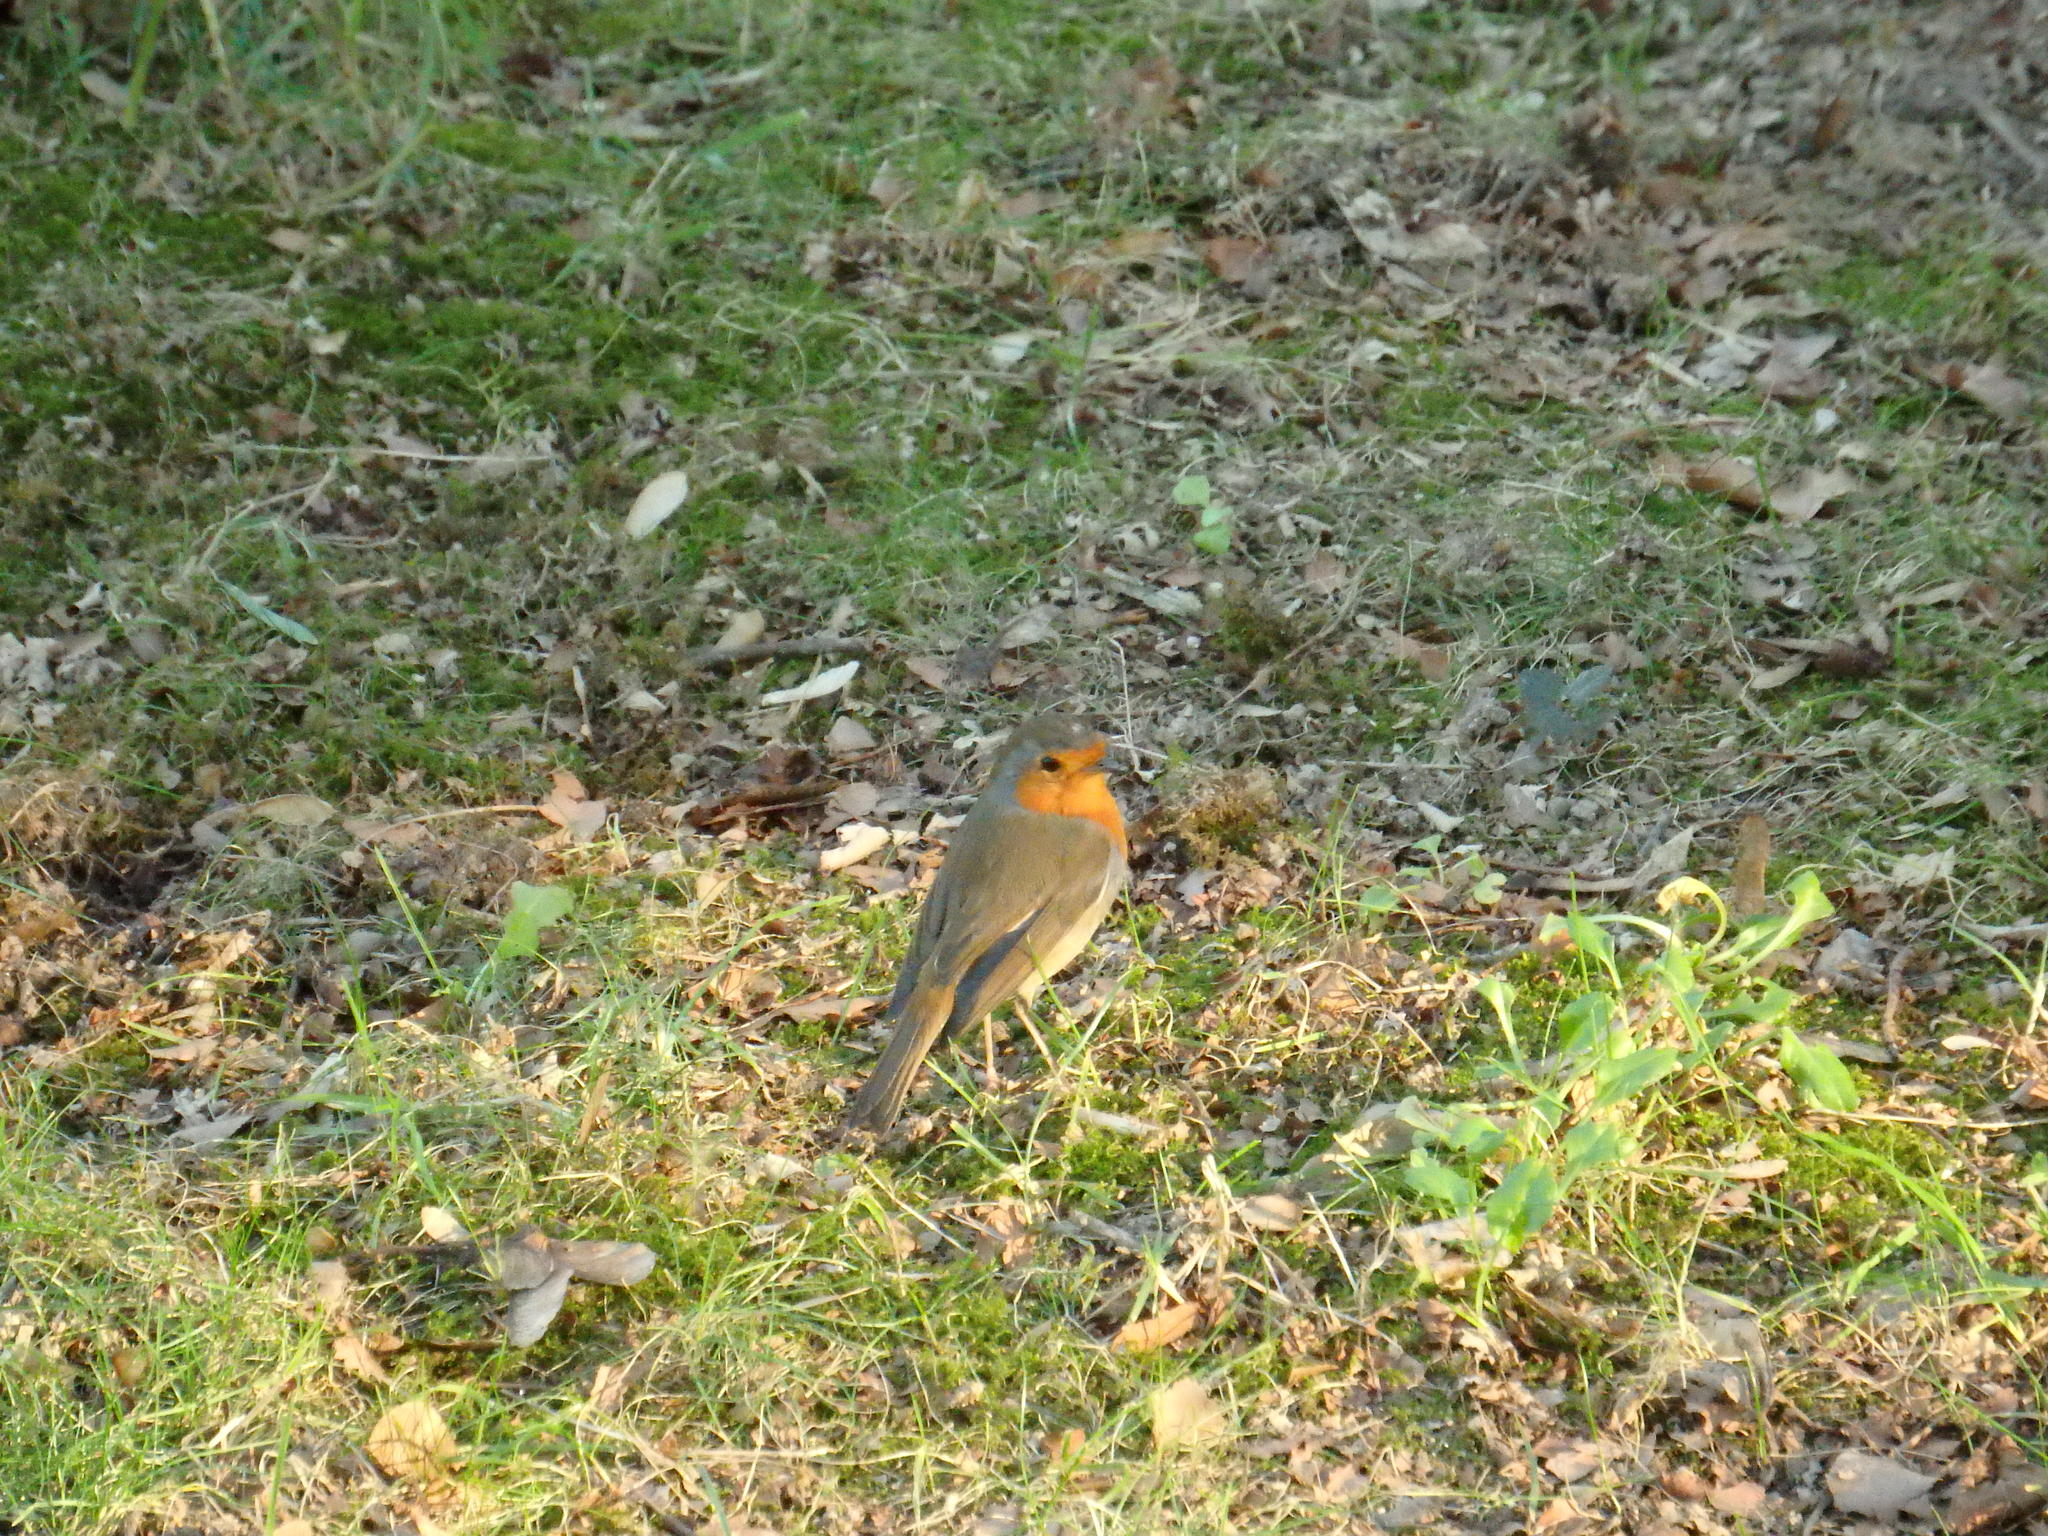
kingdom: Animalia
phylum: Chordata
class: Aves
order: Passeriformes
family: Muscicapidae
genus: Erithacus
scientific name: Erithacus rubecula
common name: European robin
